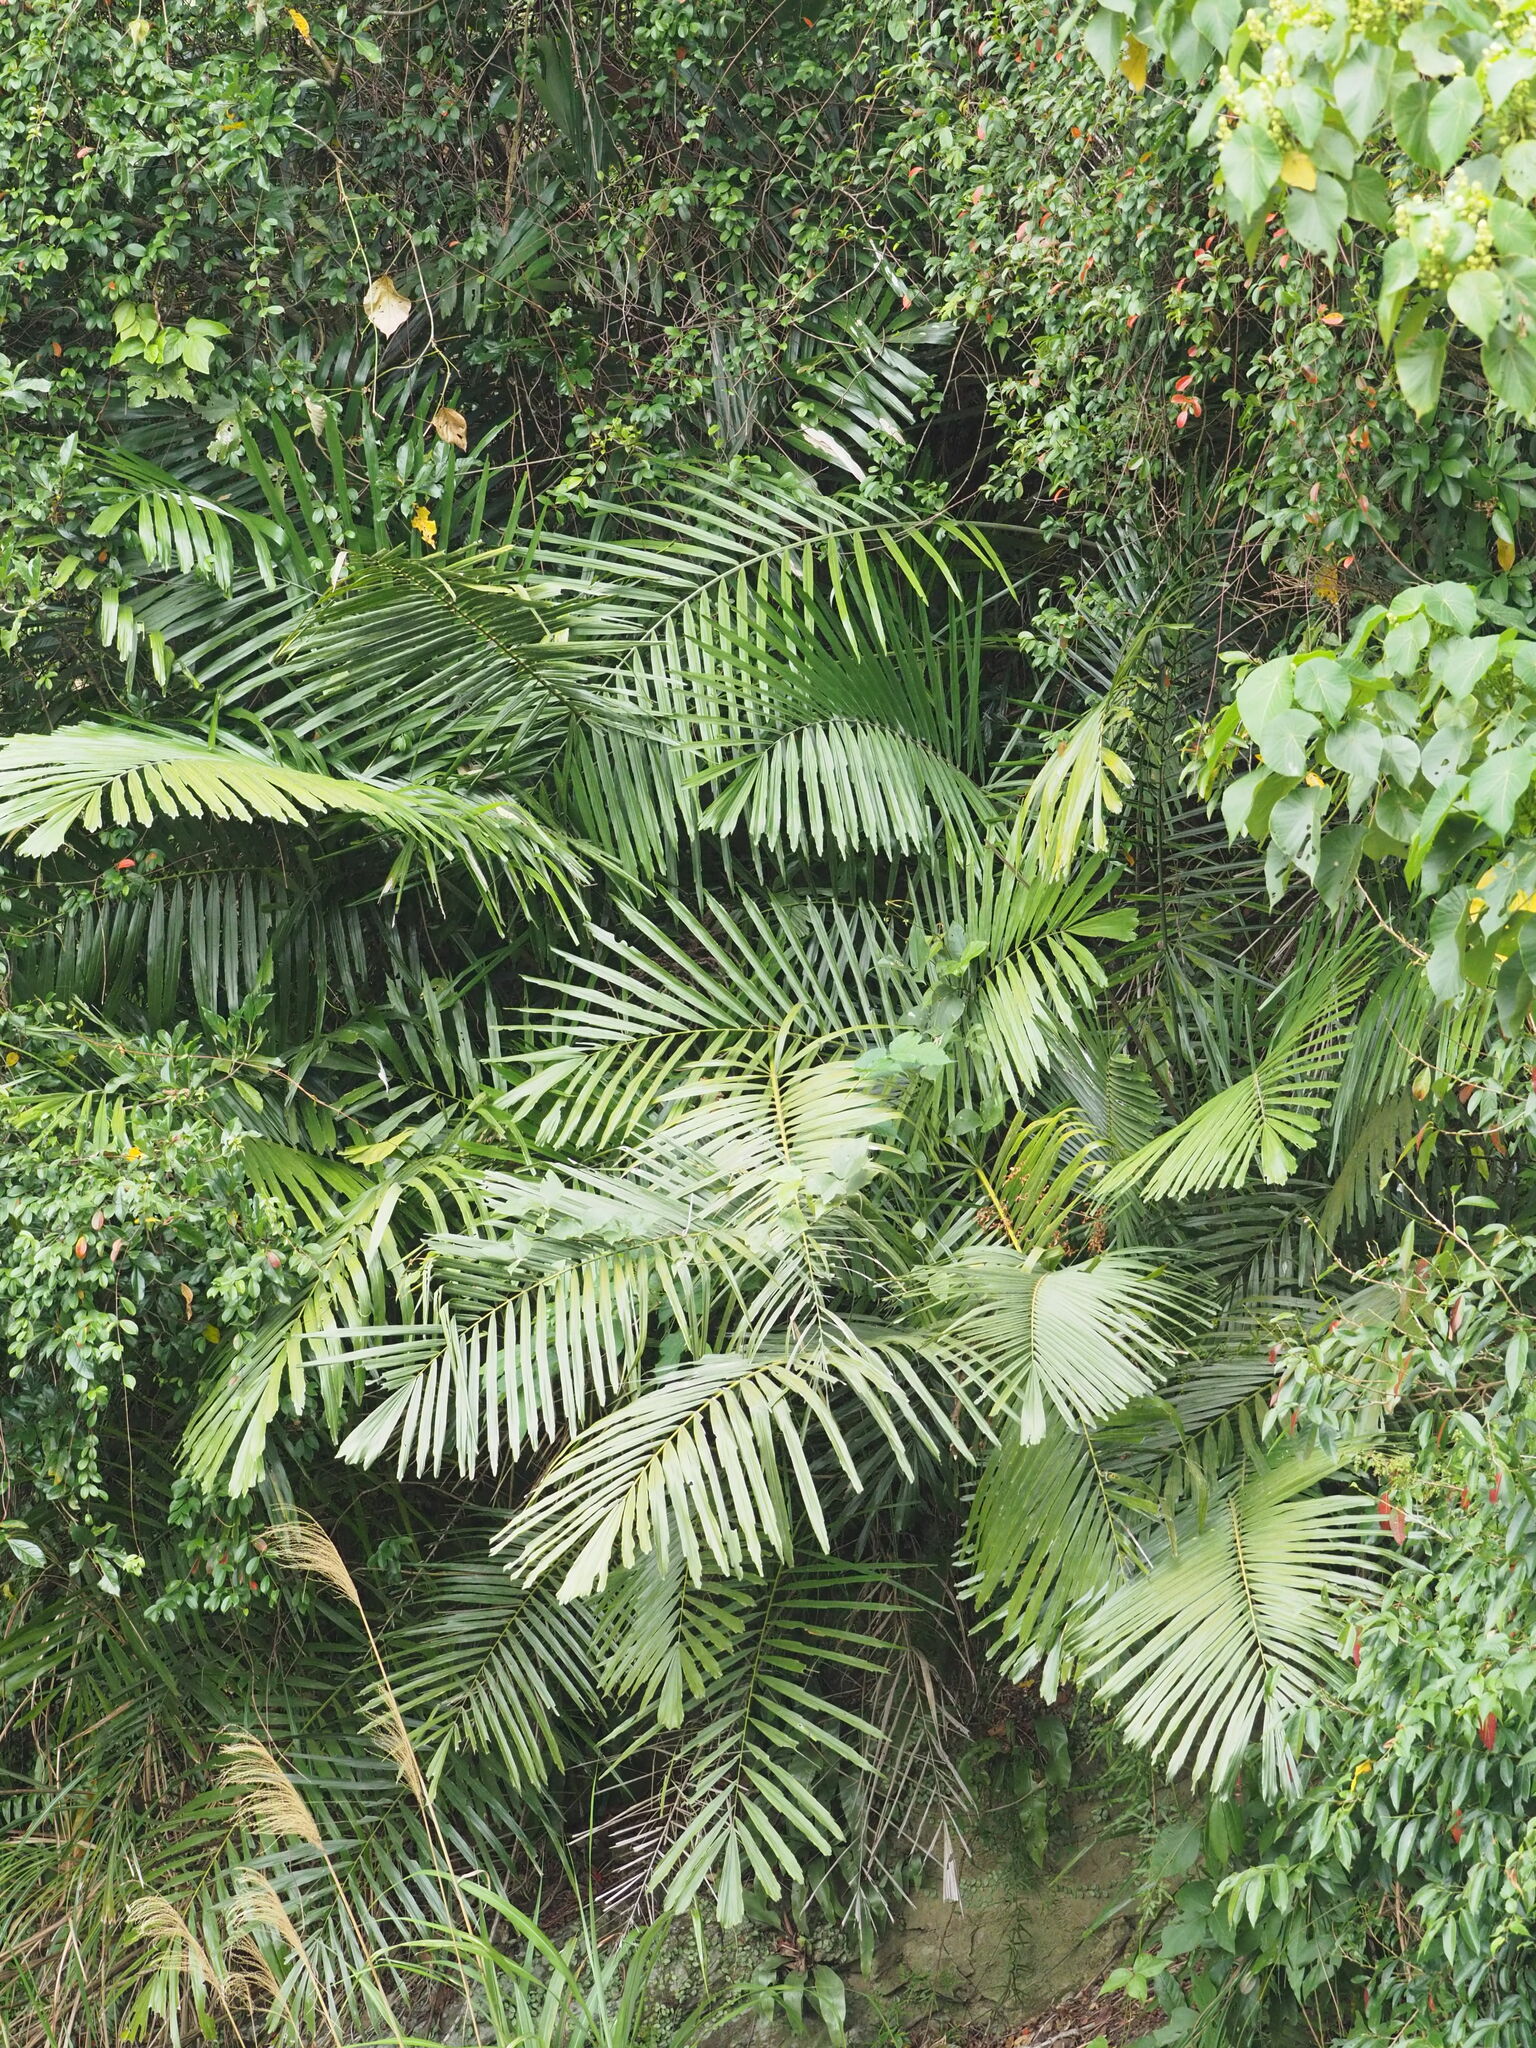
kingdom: Plantae
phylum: Tracheophyta
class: Liliopsida
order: Arecales
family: Arecaceae
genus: Arenga
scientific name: Arenga engleri
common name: Formosan sugar palm
